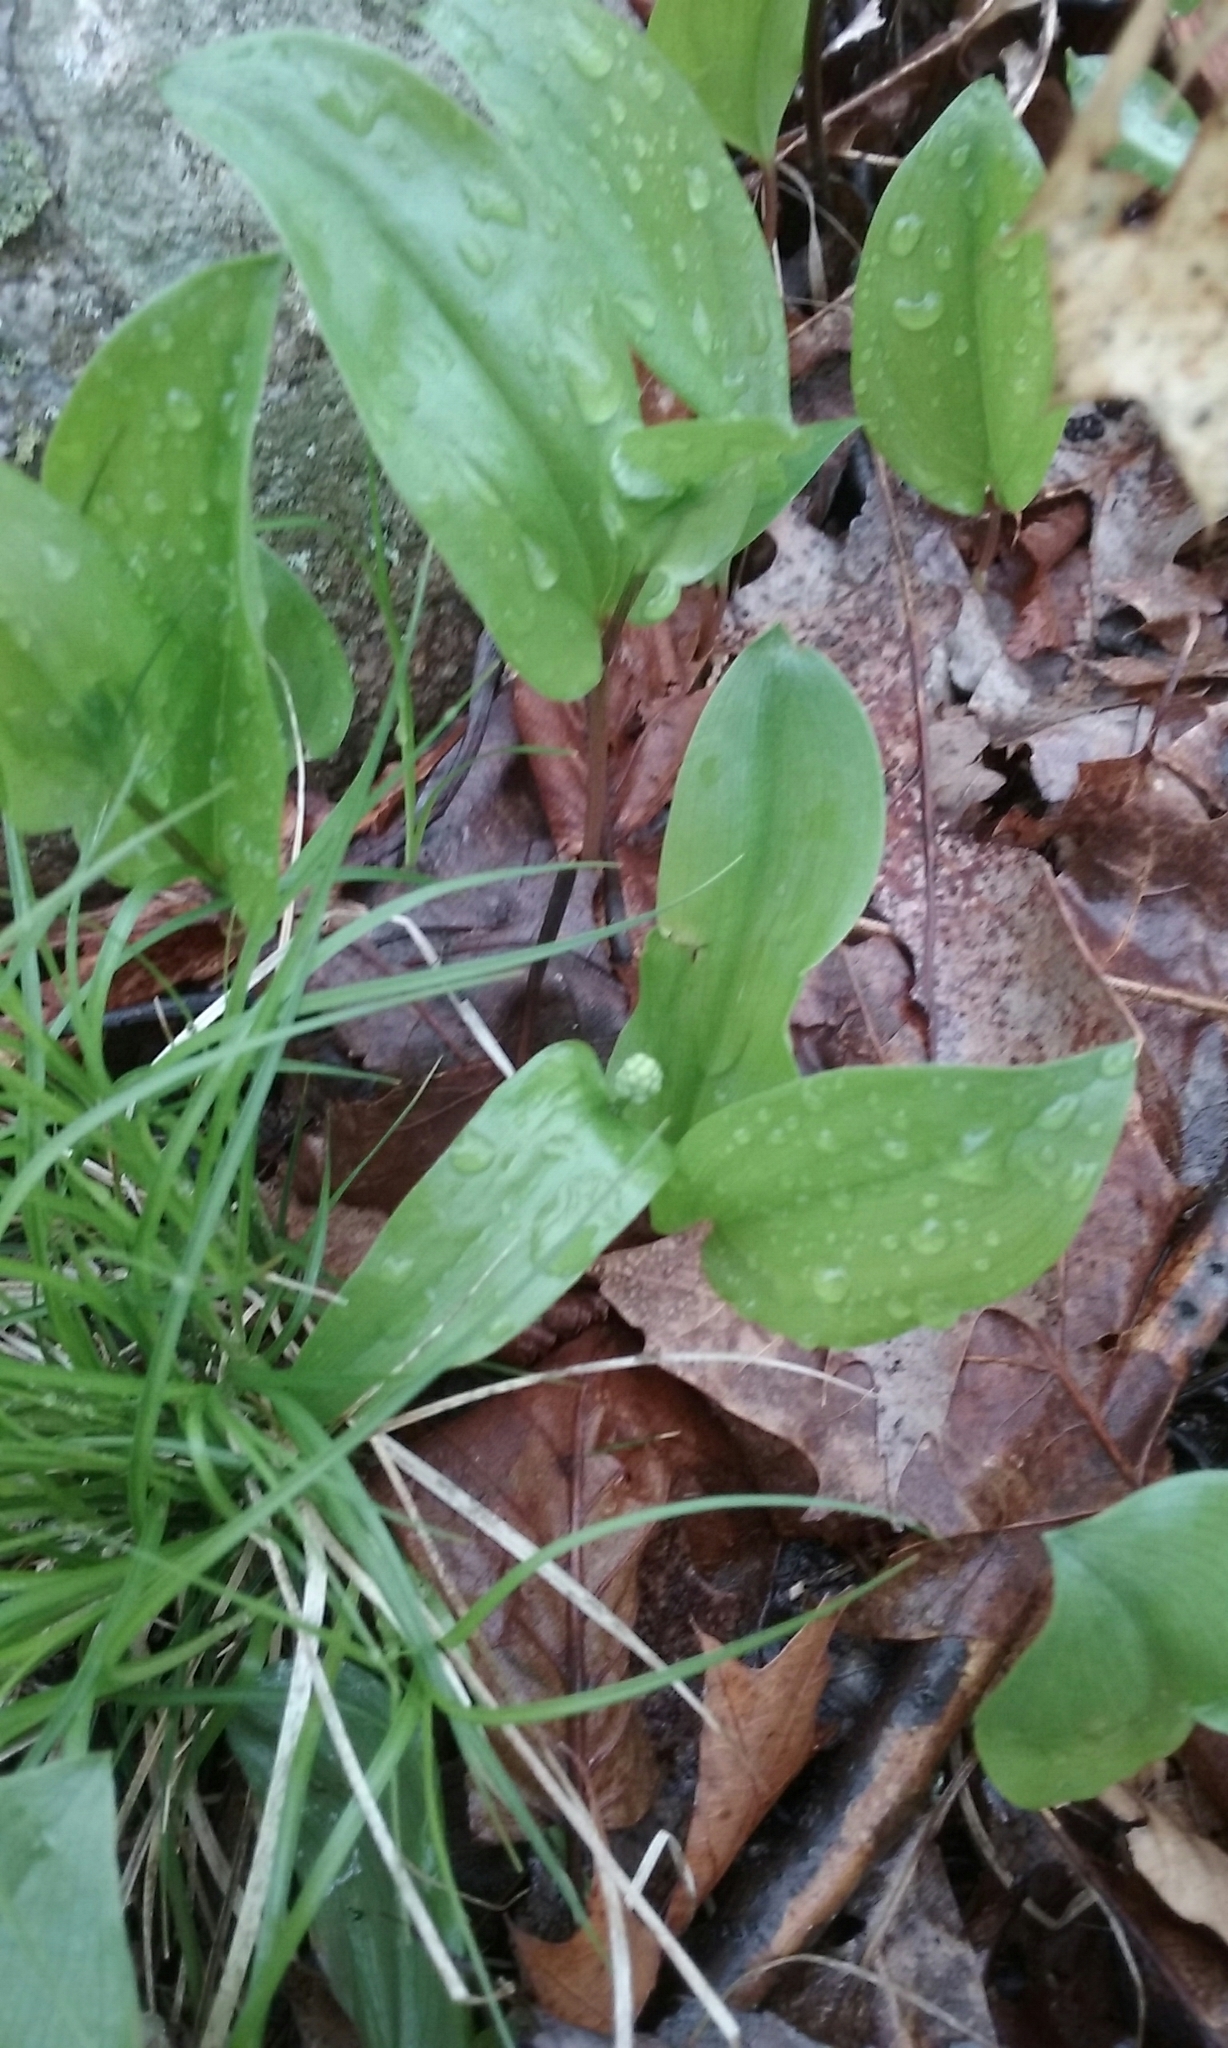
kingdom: Plantae
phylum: Tracheophyta
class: Liliopsida
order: Asparagales
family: Asparagaceae
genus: Maianthemum
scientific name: Maianthemum canadense
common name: False lily-of-the-valley
